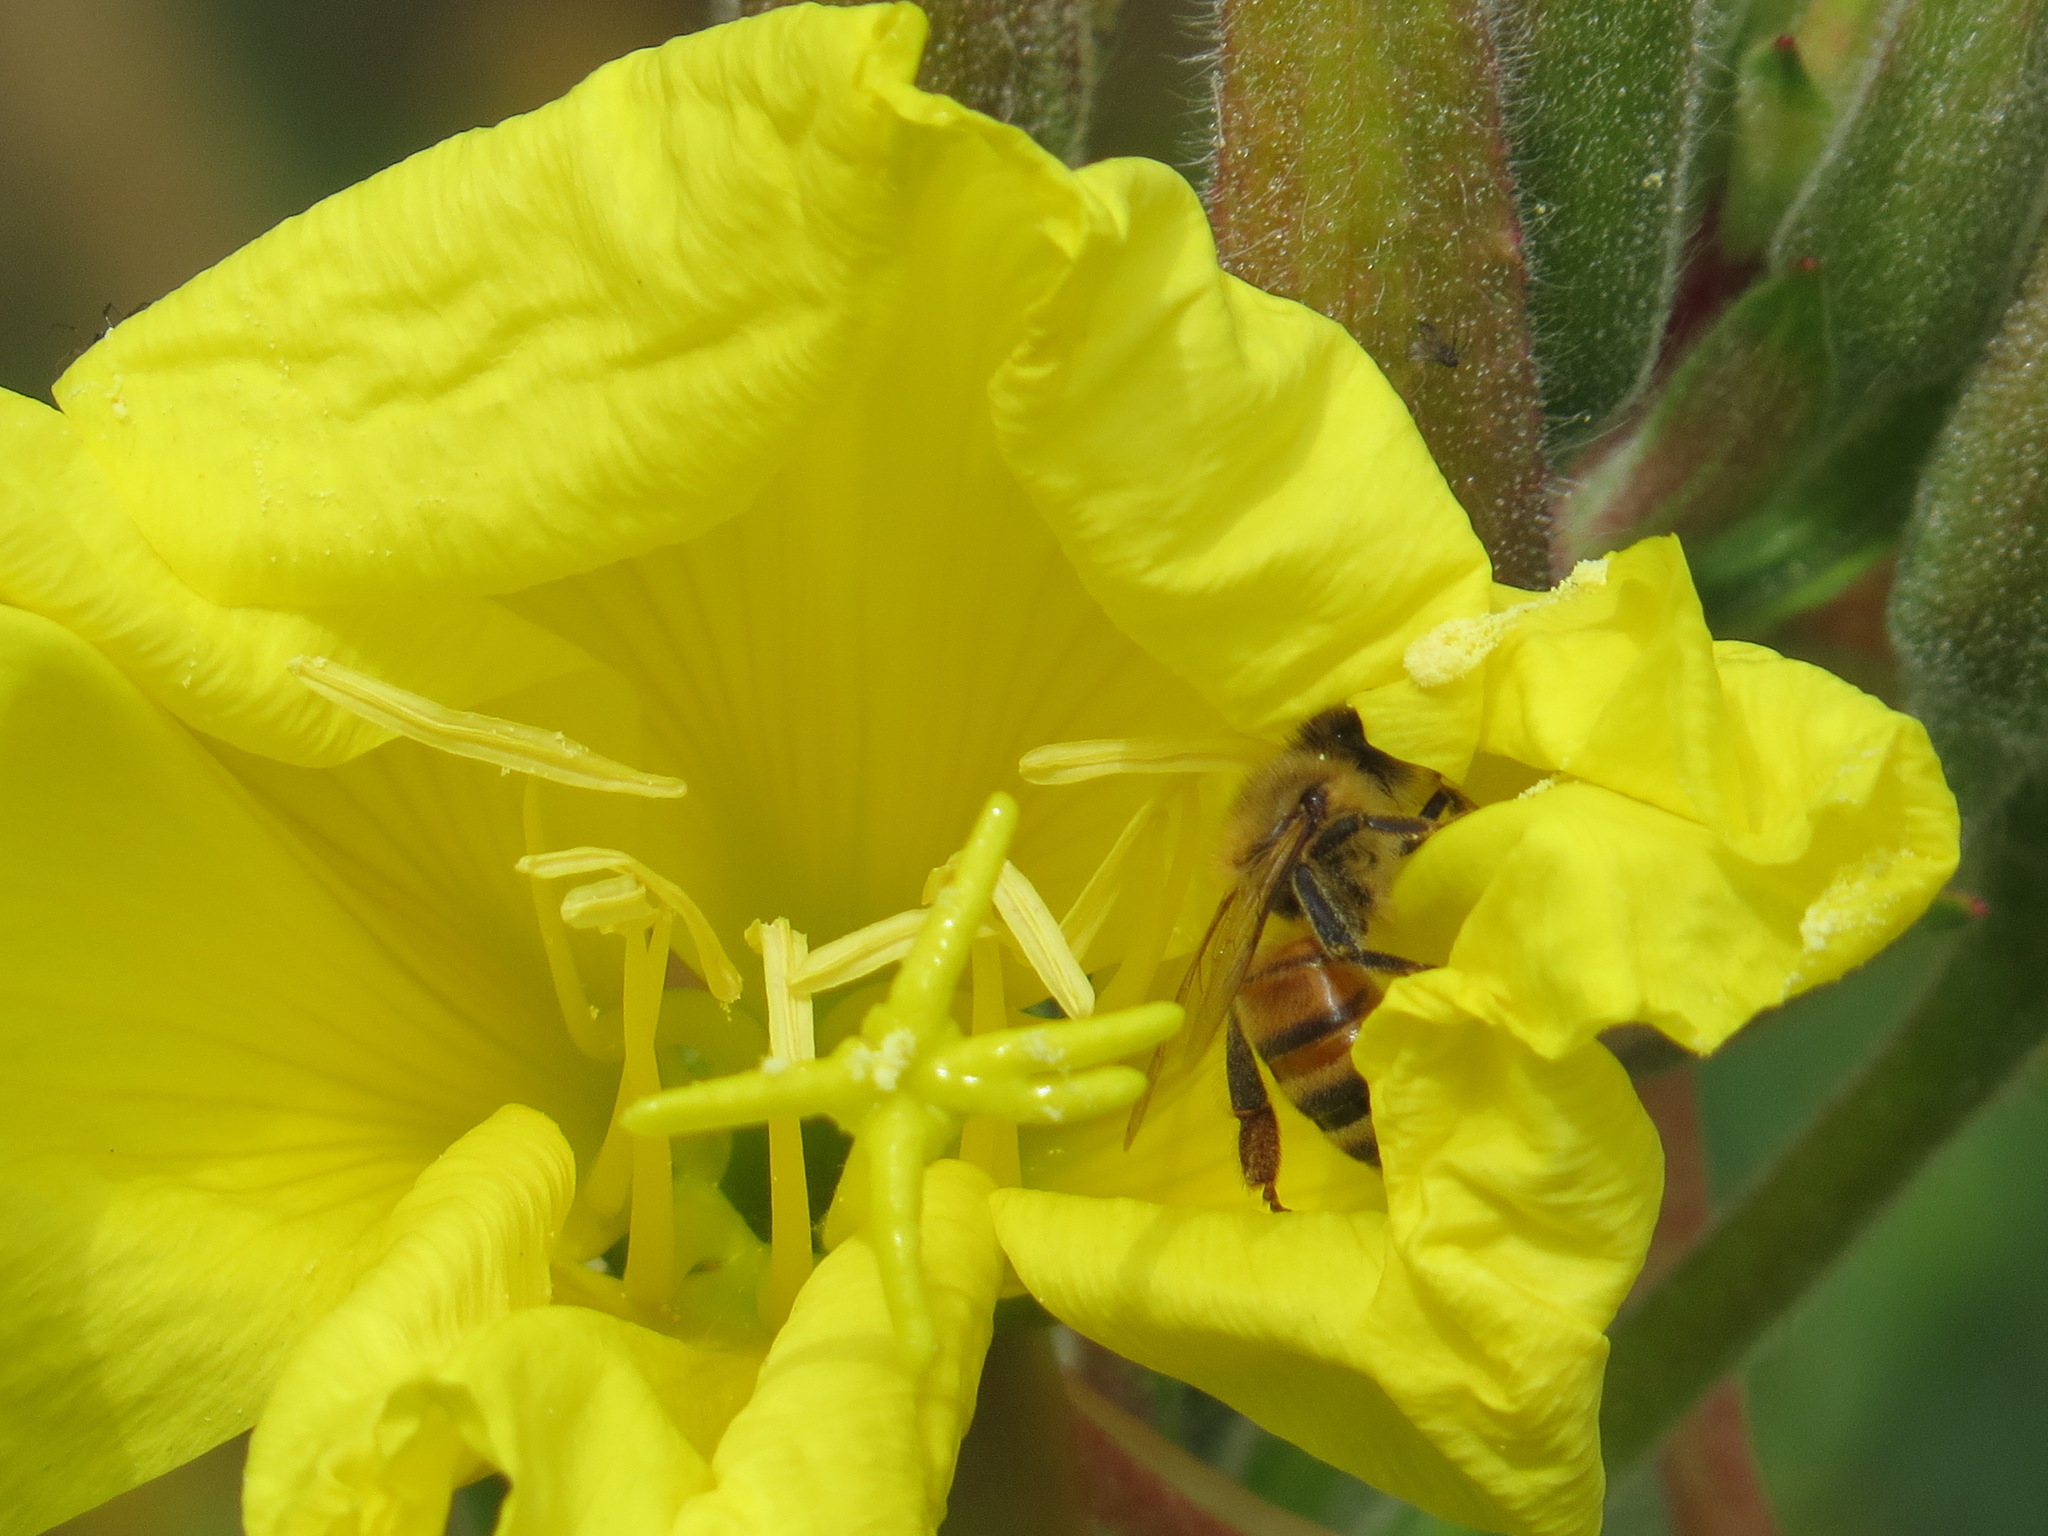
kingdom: Animalia
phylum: Arthropoda
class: Insecta
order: Hymenoptera
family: Apidae
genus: Apis
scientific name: Apis mellifera
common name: Honey bee
